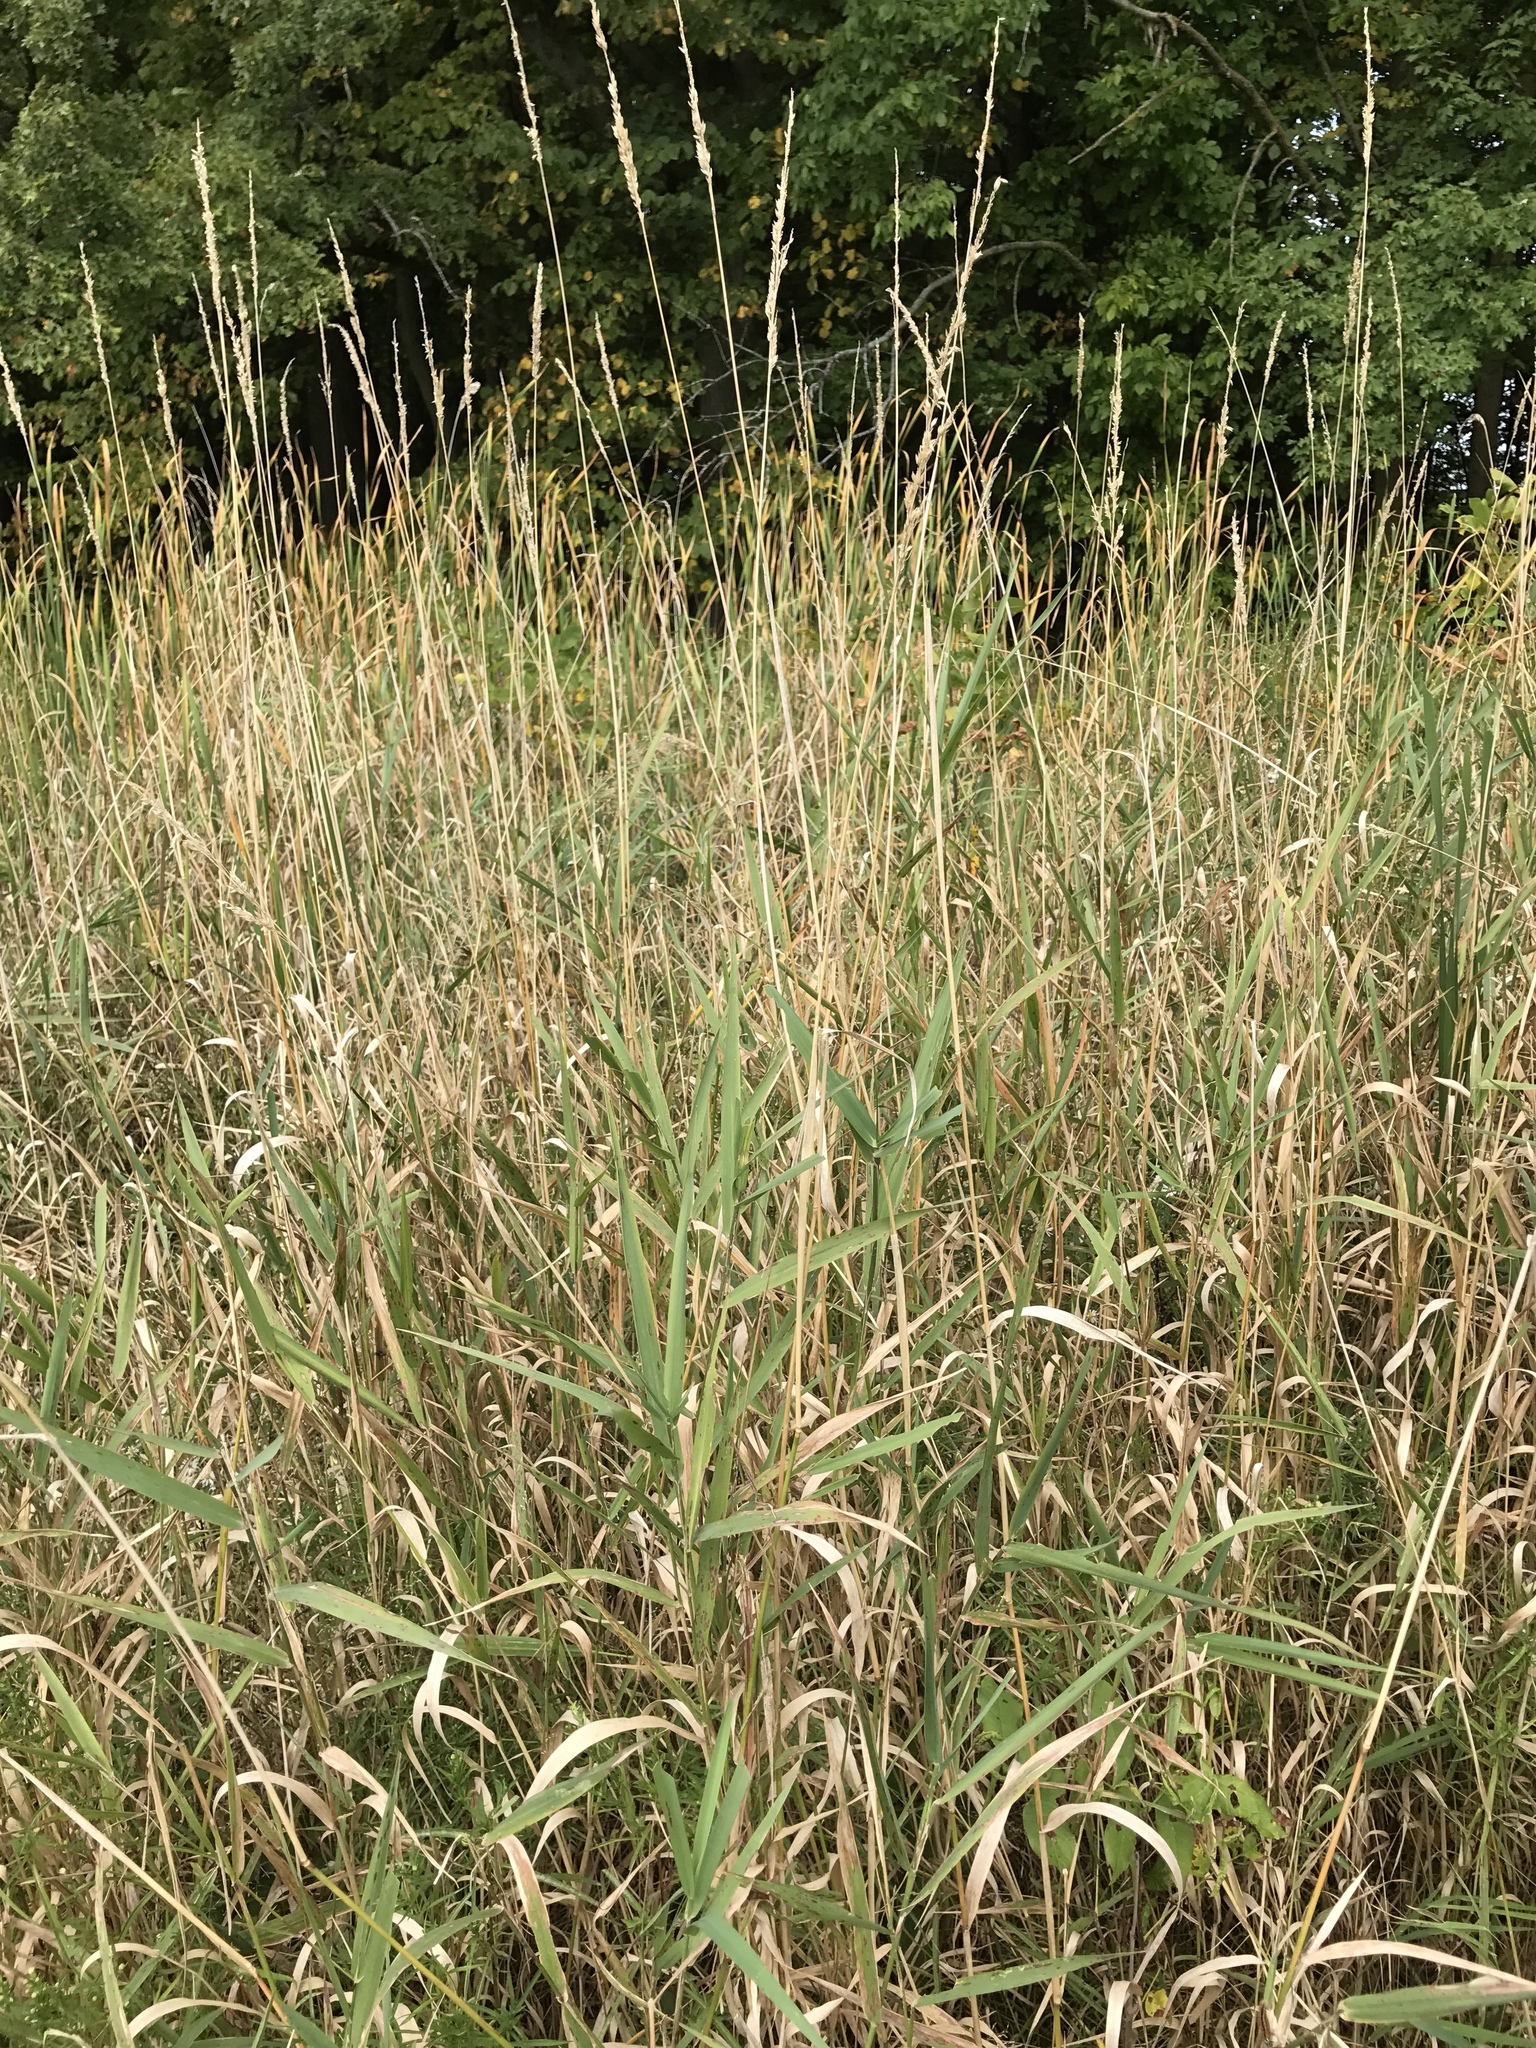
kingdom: Plantae
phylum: Tracheophyta
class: Liliopsida
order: Poales
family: Poaceae
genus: Phalaris
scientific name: Phalaris arundinacea
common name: Reed canary-grass
